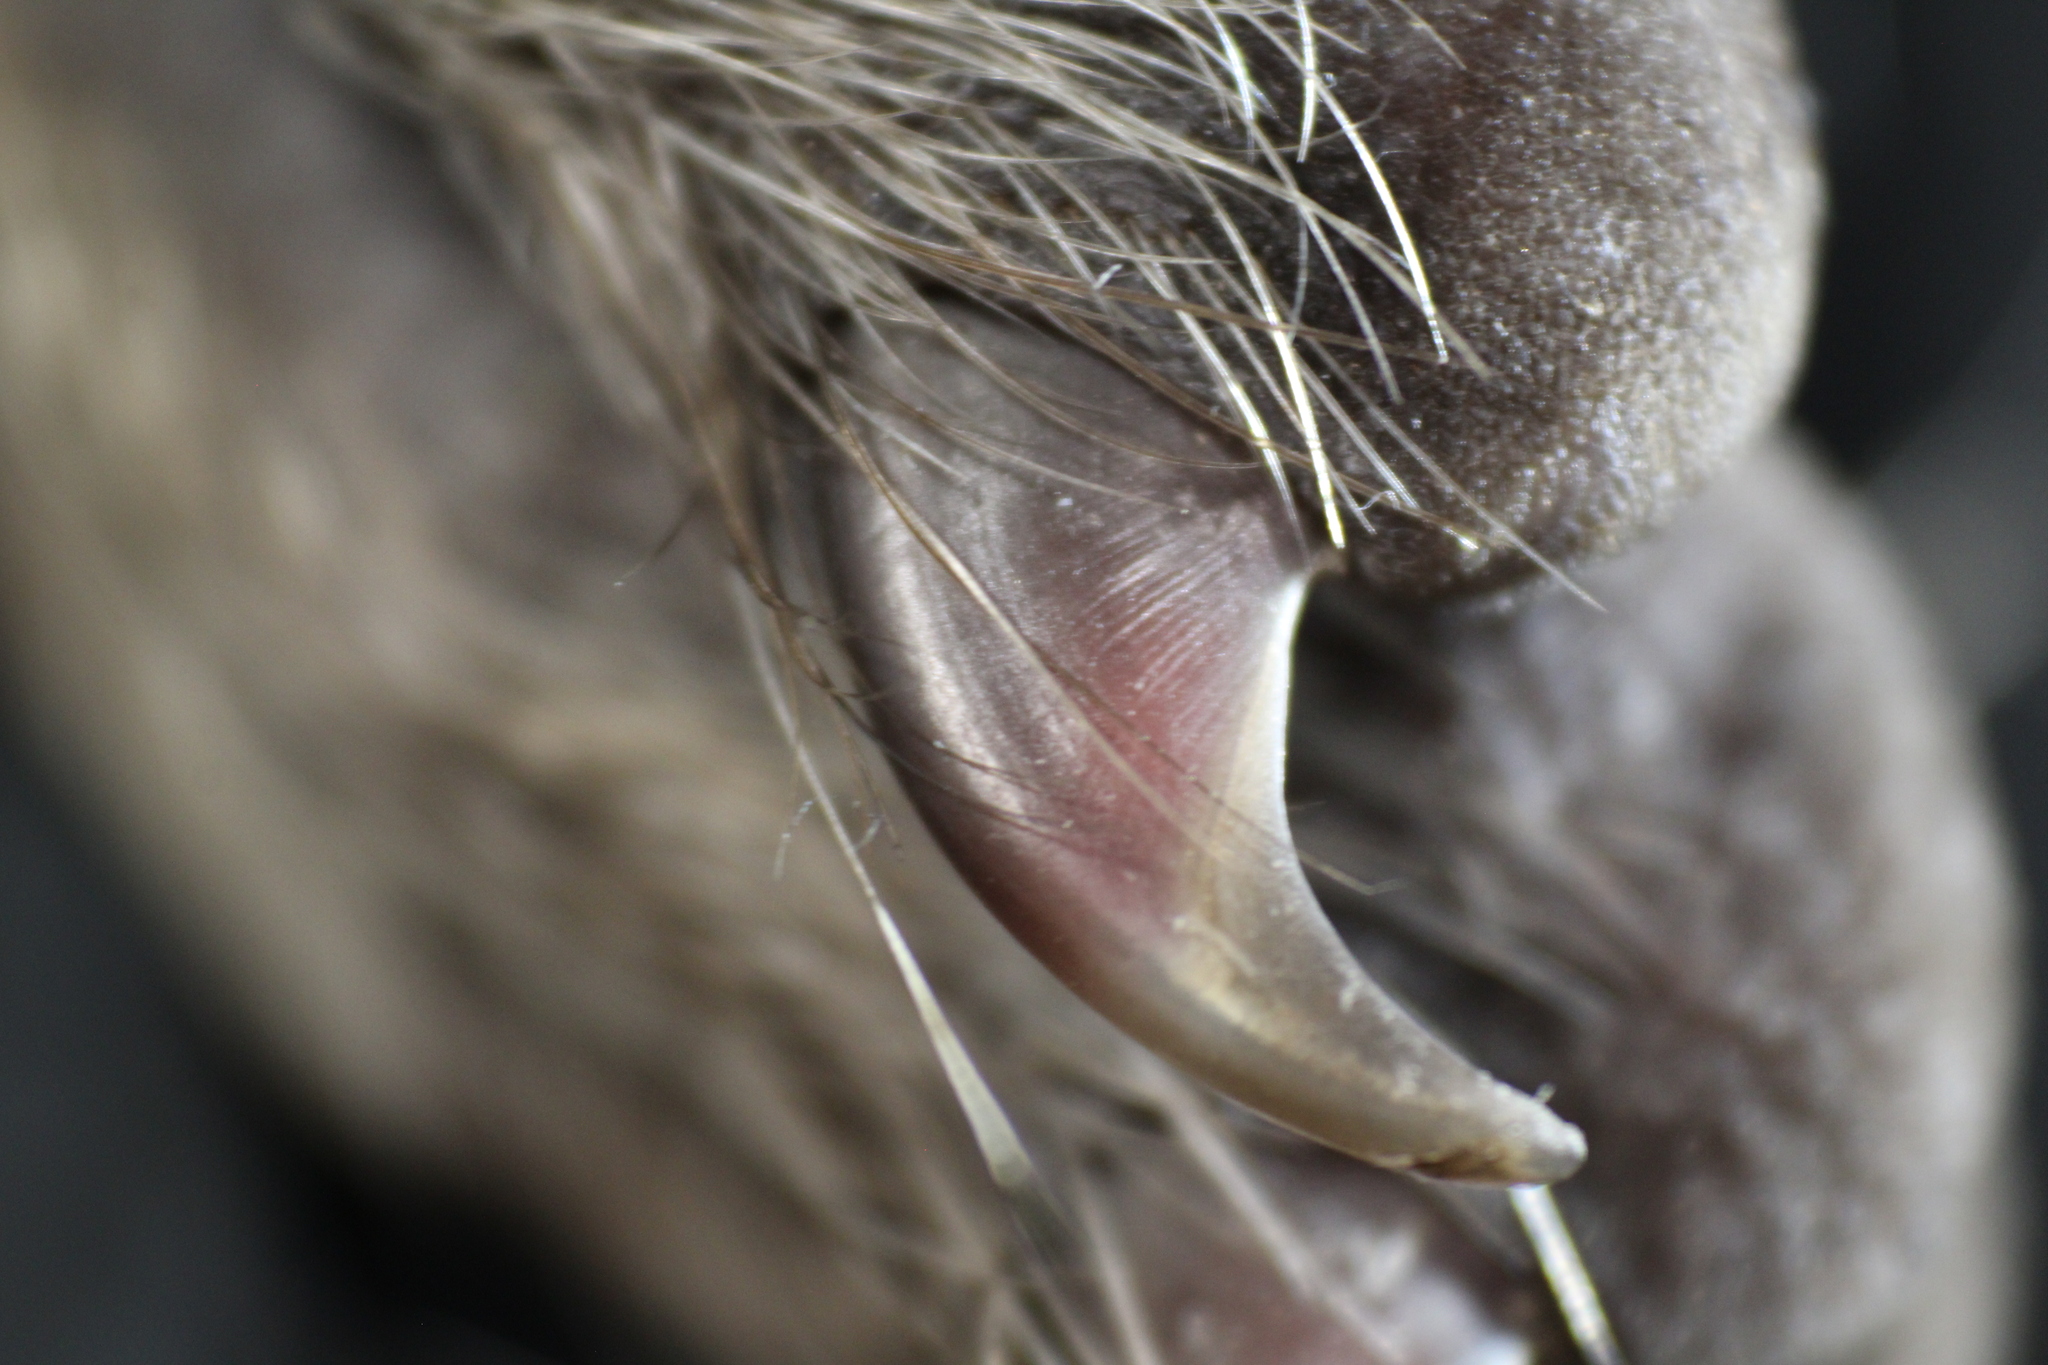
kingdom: Animalia
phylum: Chordata
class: Mammalia
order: Carnivora
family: Procyonidae
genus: Procyon
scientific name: Procyon lotor
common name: Raccoon
